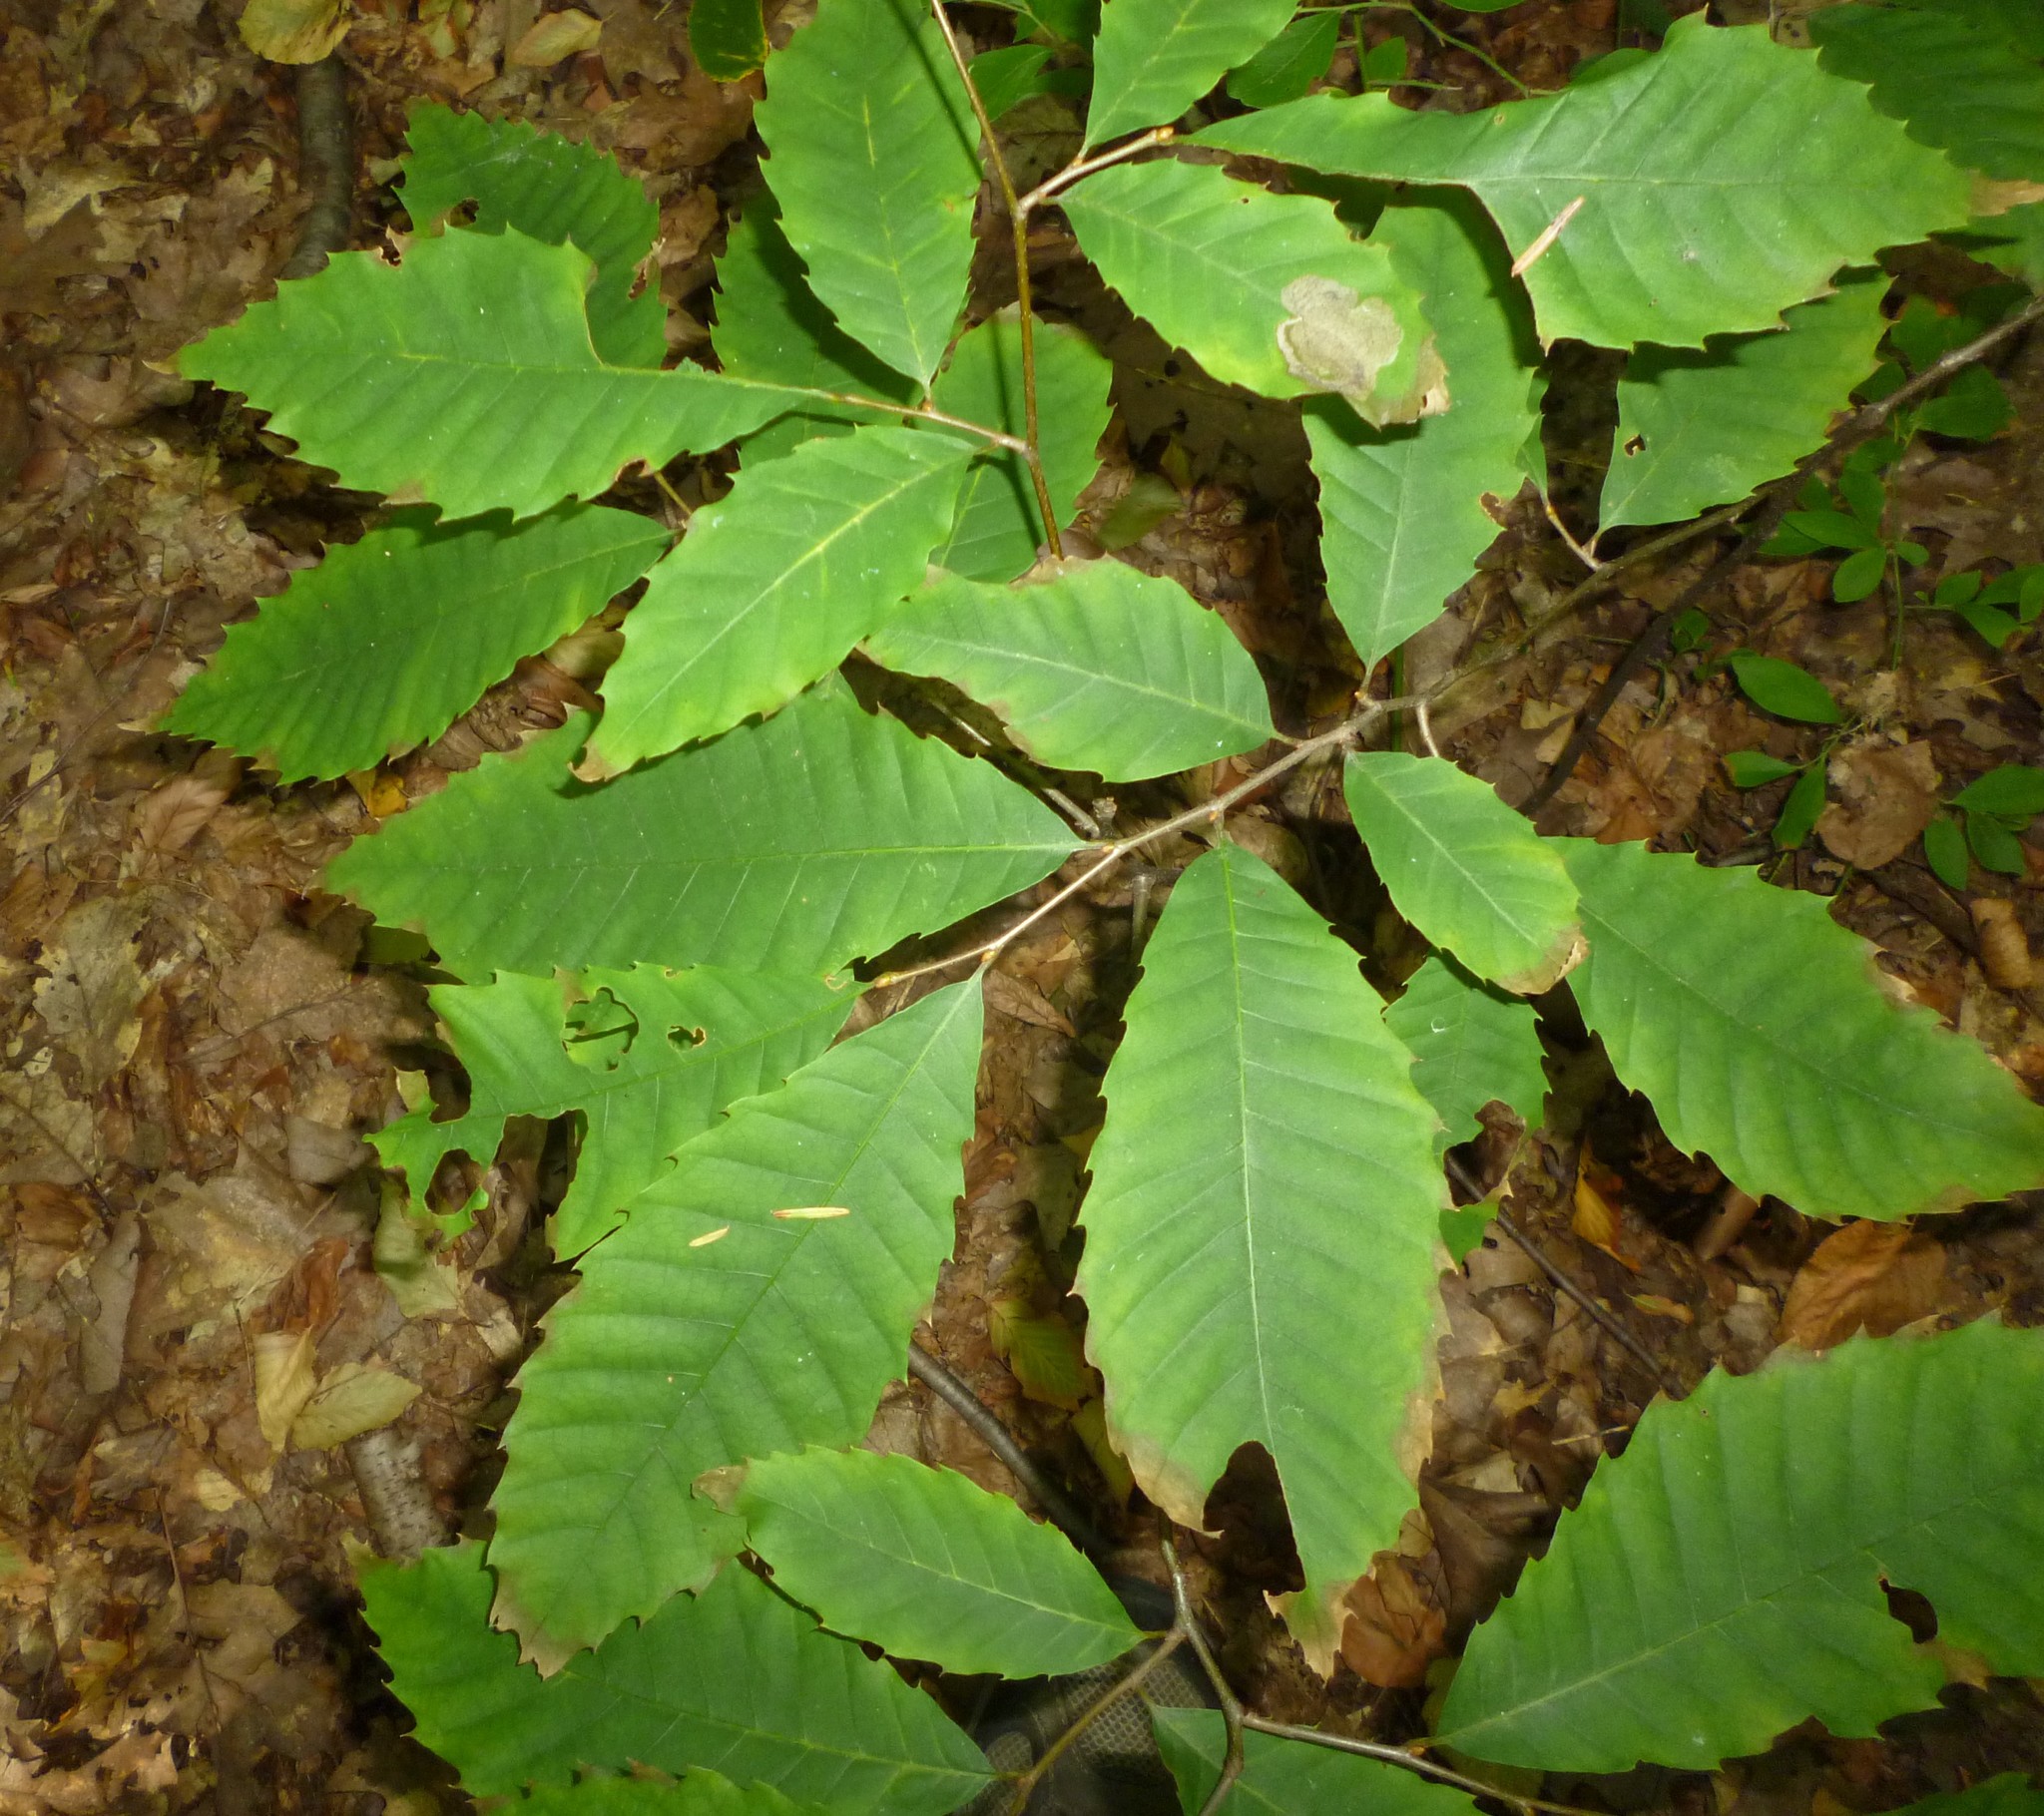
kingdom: Plantae
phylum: Tracheophyta
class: Magnoliopsida
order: Fagales
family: Fagaceae
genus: Castanea
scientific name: Castanea dentata
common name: American chestnut
